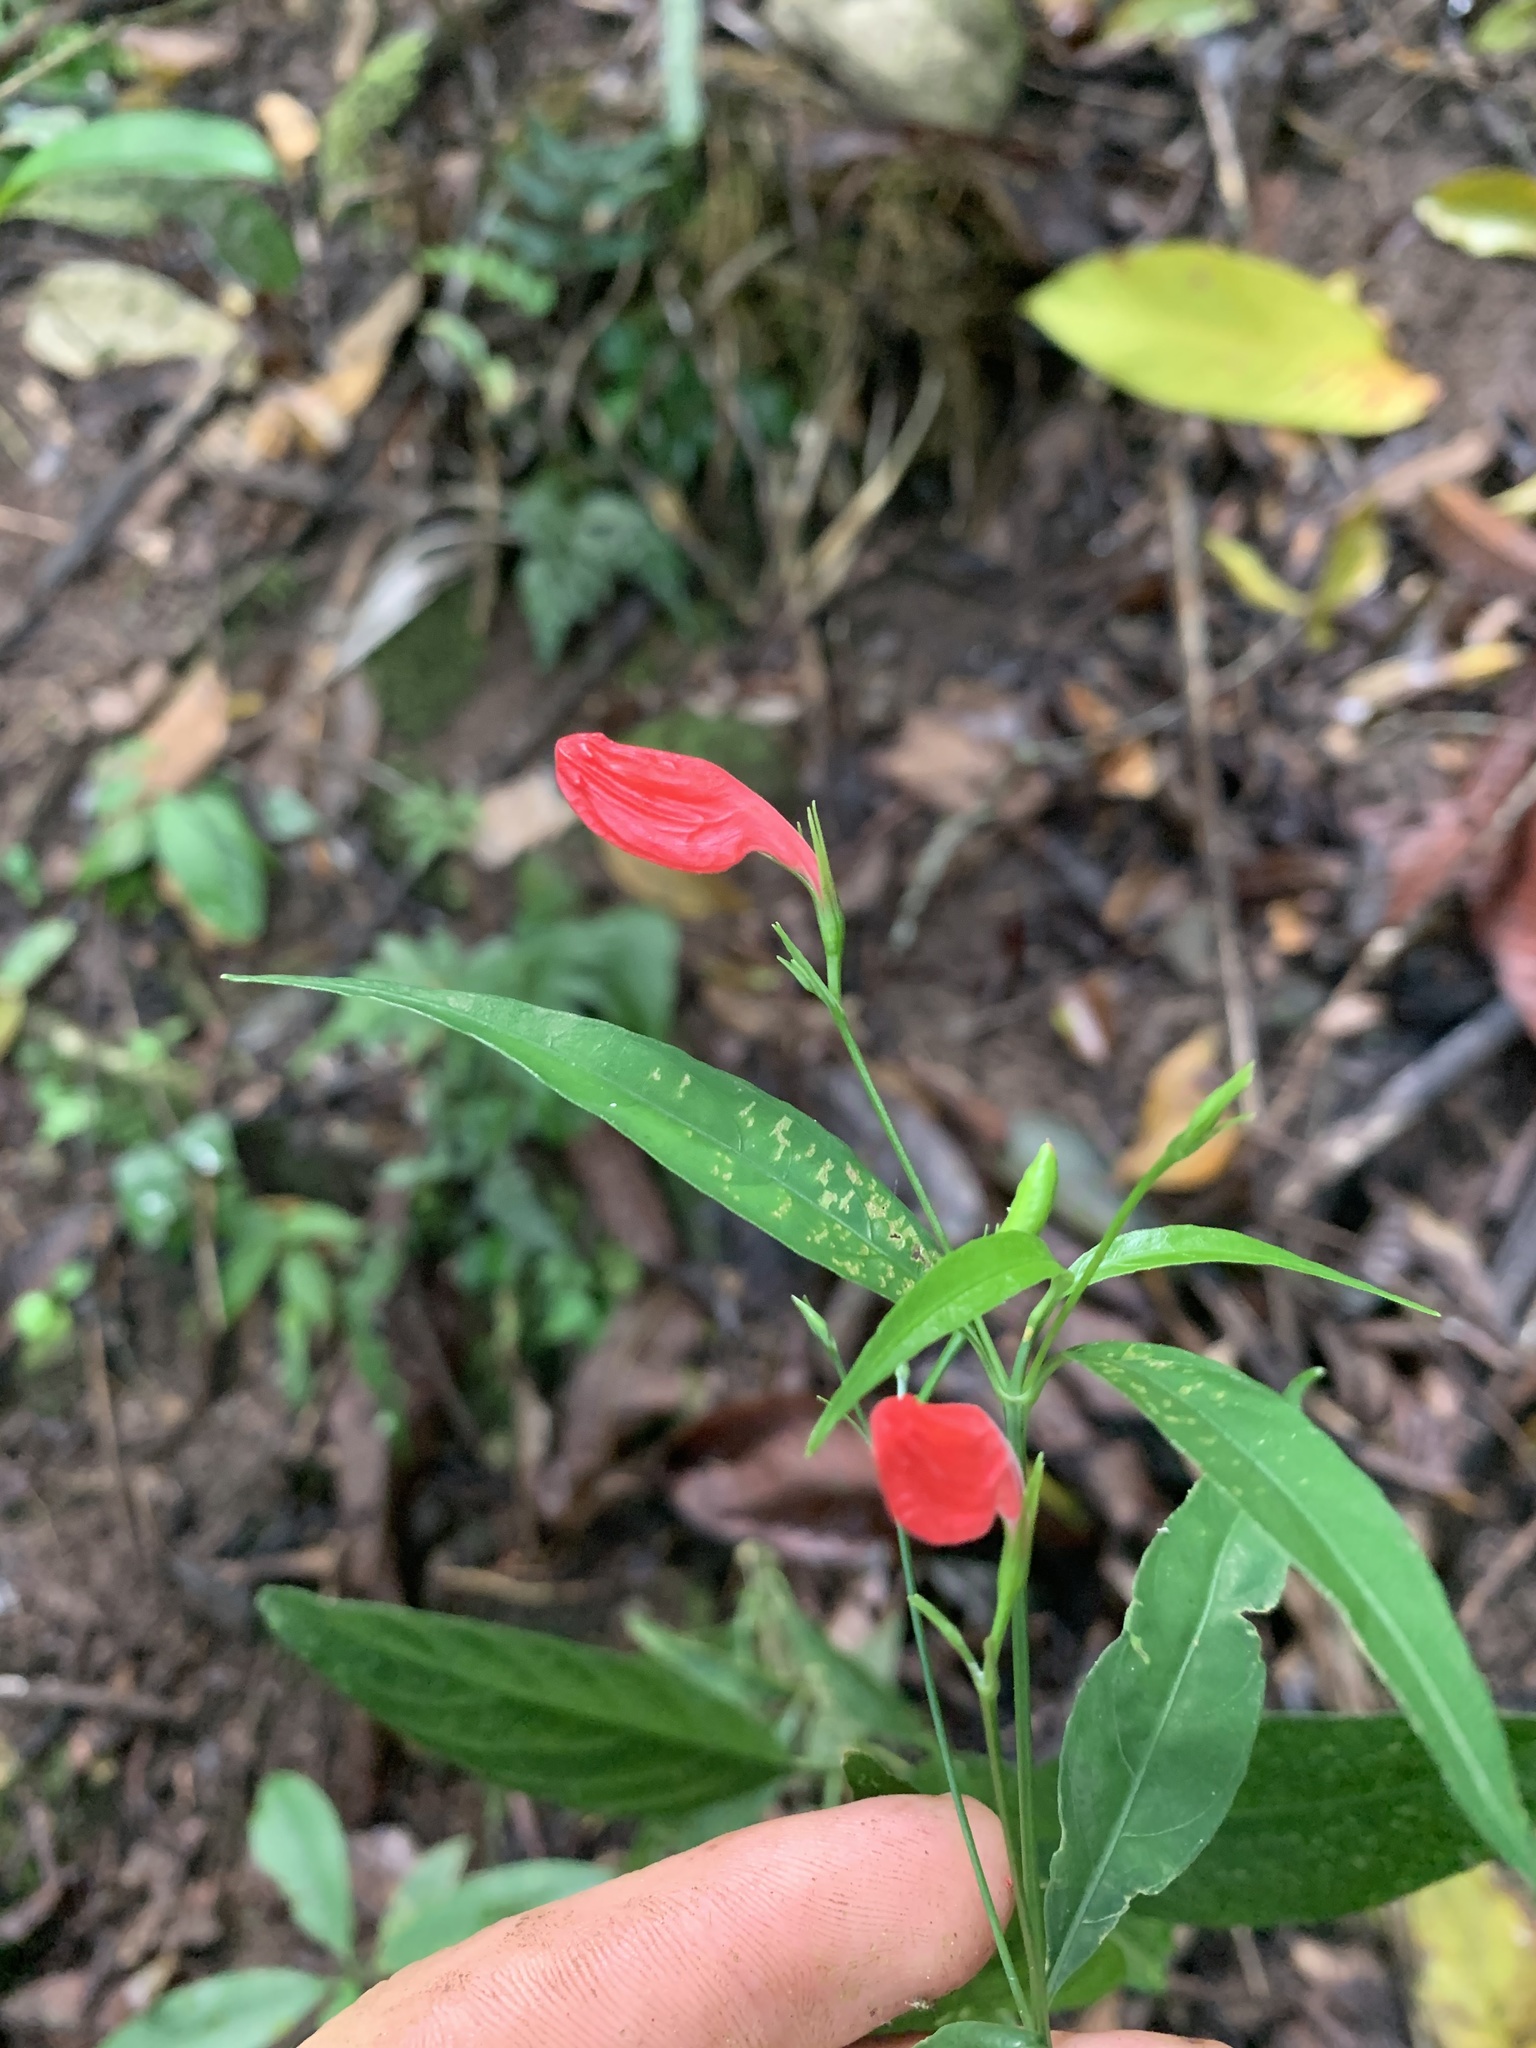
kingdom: Plantae
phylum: Tracheophyta
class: Magnoliopsida
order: Lamiales
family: Acanthaceae
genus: Ruellia
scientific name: Ruellia brevifolia
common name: Tropical wild petunia
